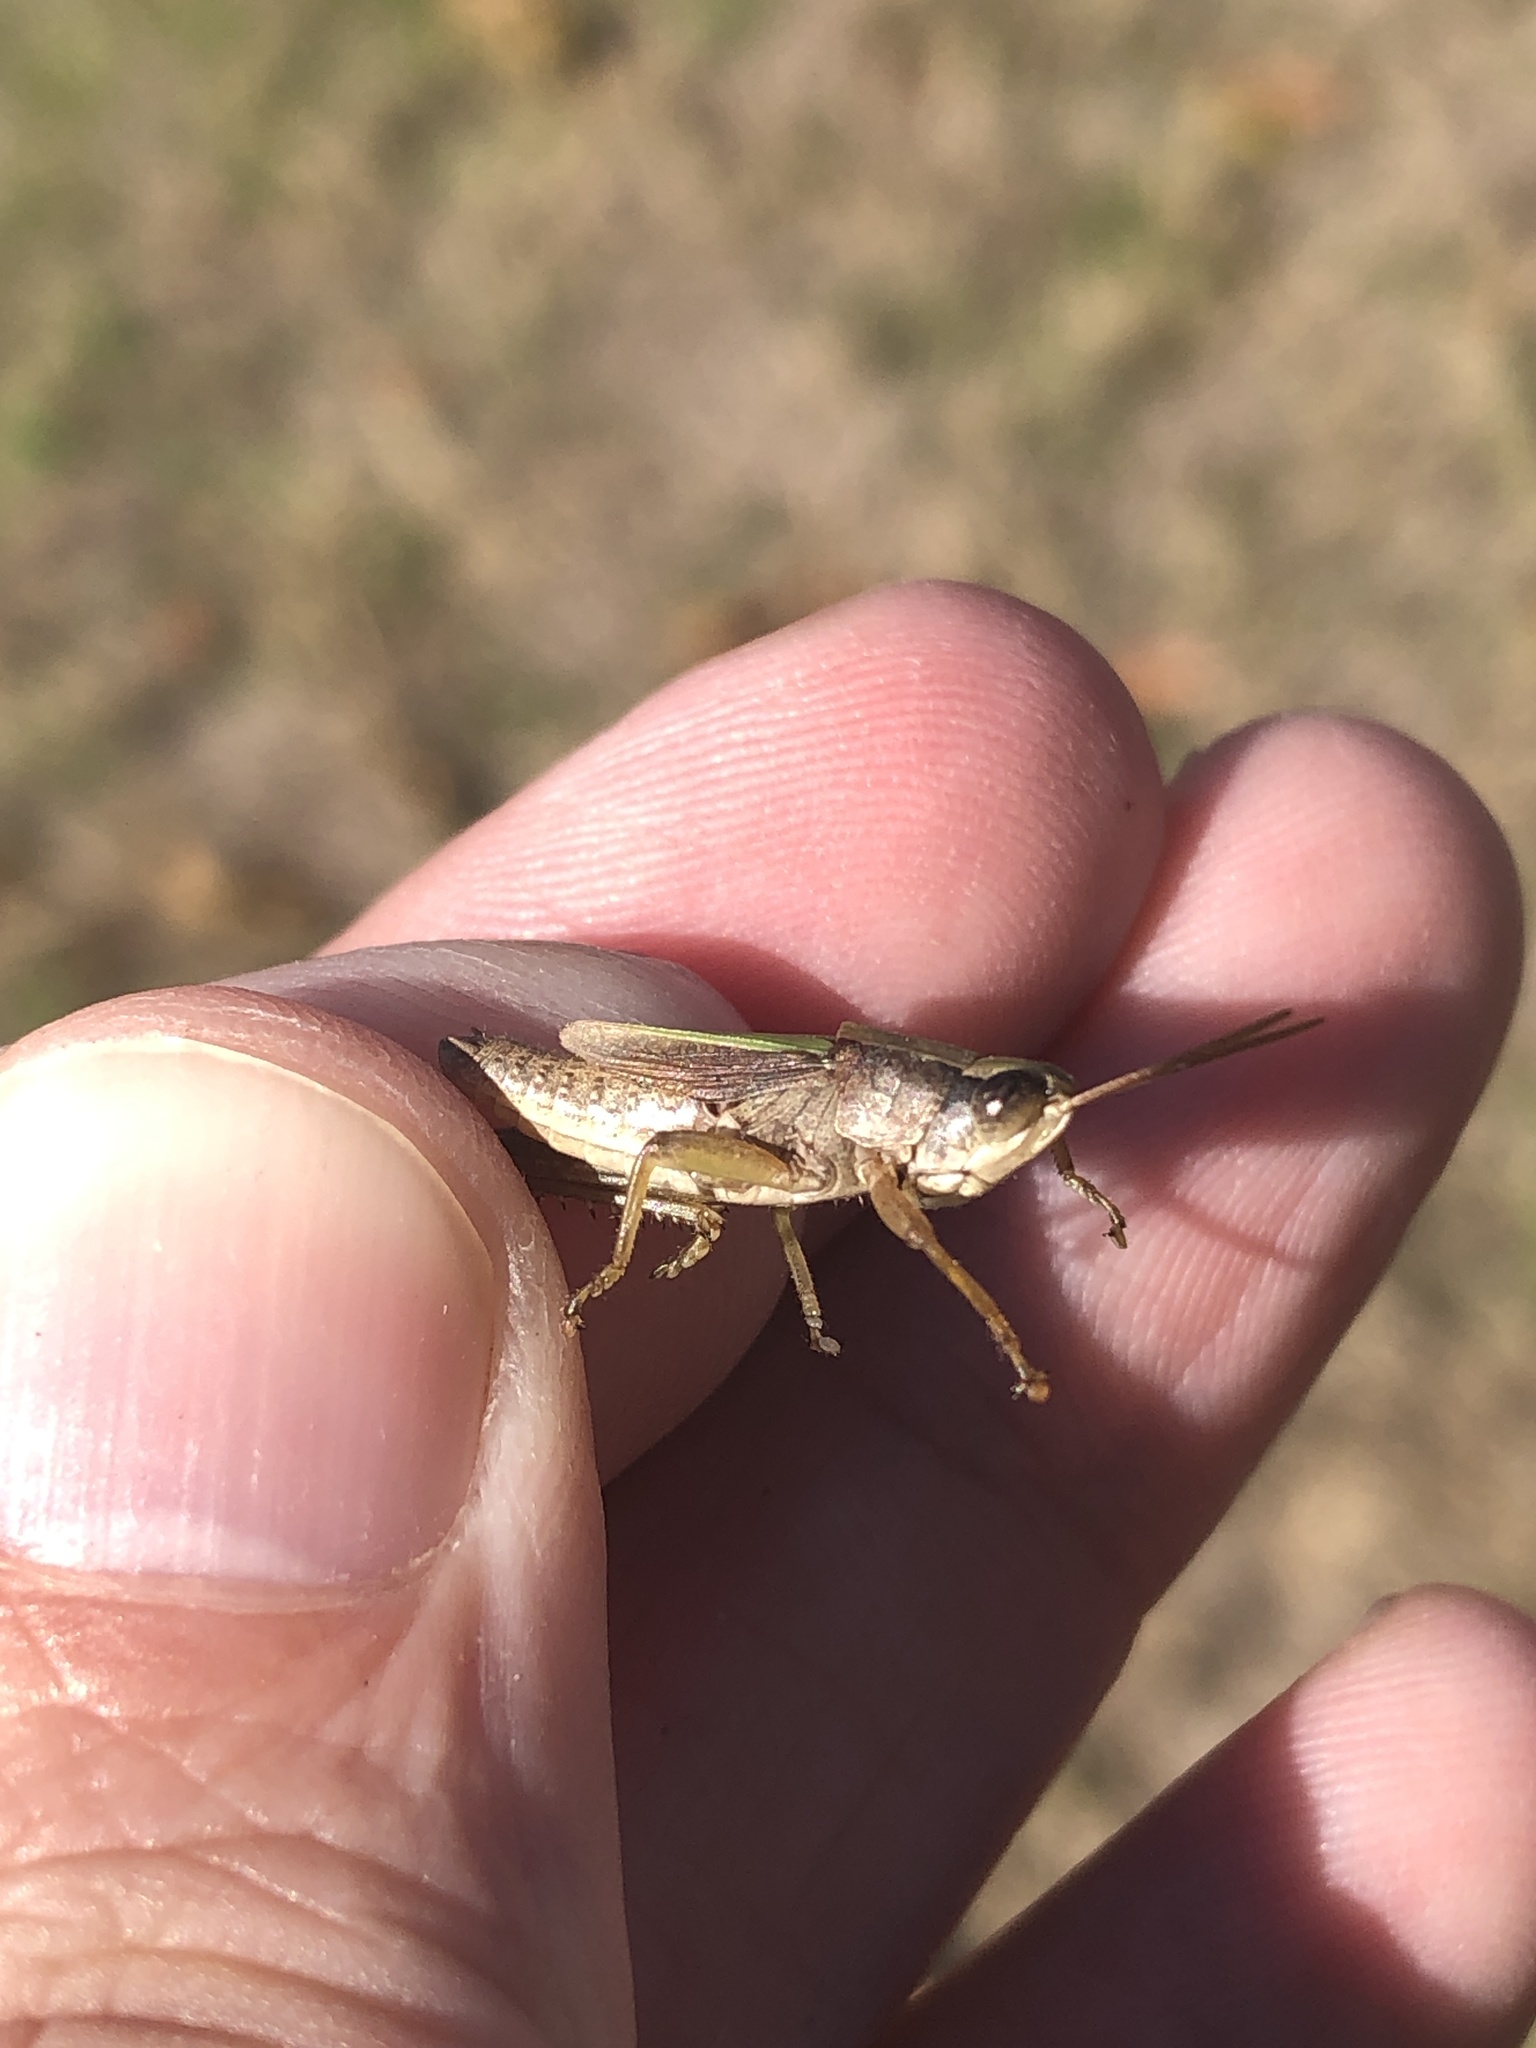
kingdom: Animalia
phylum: Arthropoda
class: Insecta
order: Orthoptera
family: Acrididae
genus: Dichromorpha
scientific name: Dichromorpha viridis
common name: Short-winged green grasshopper
